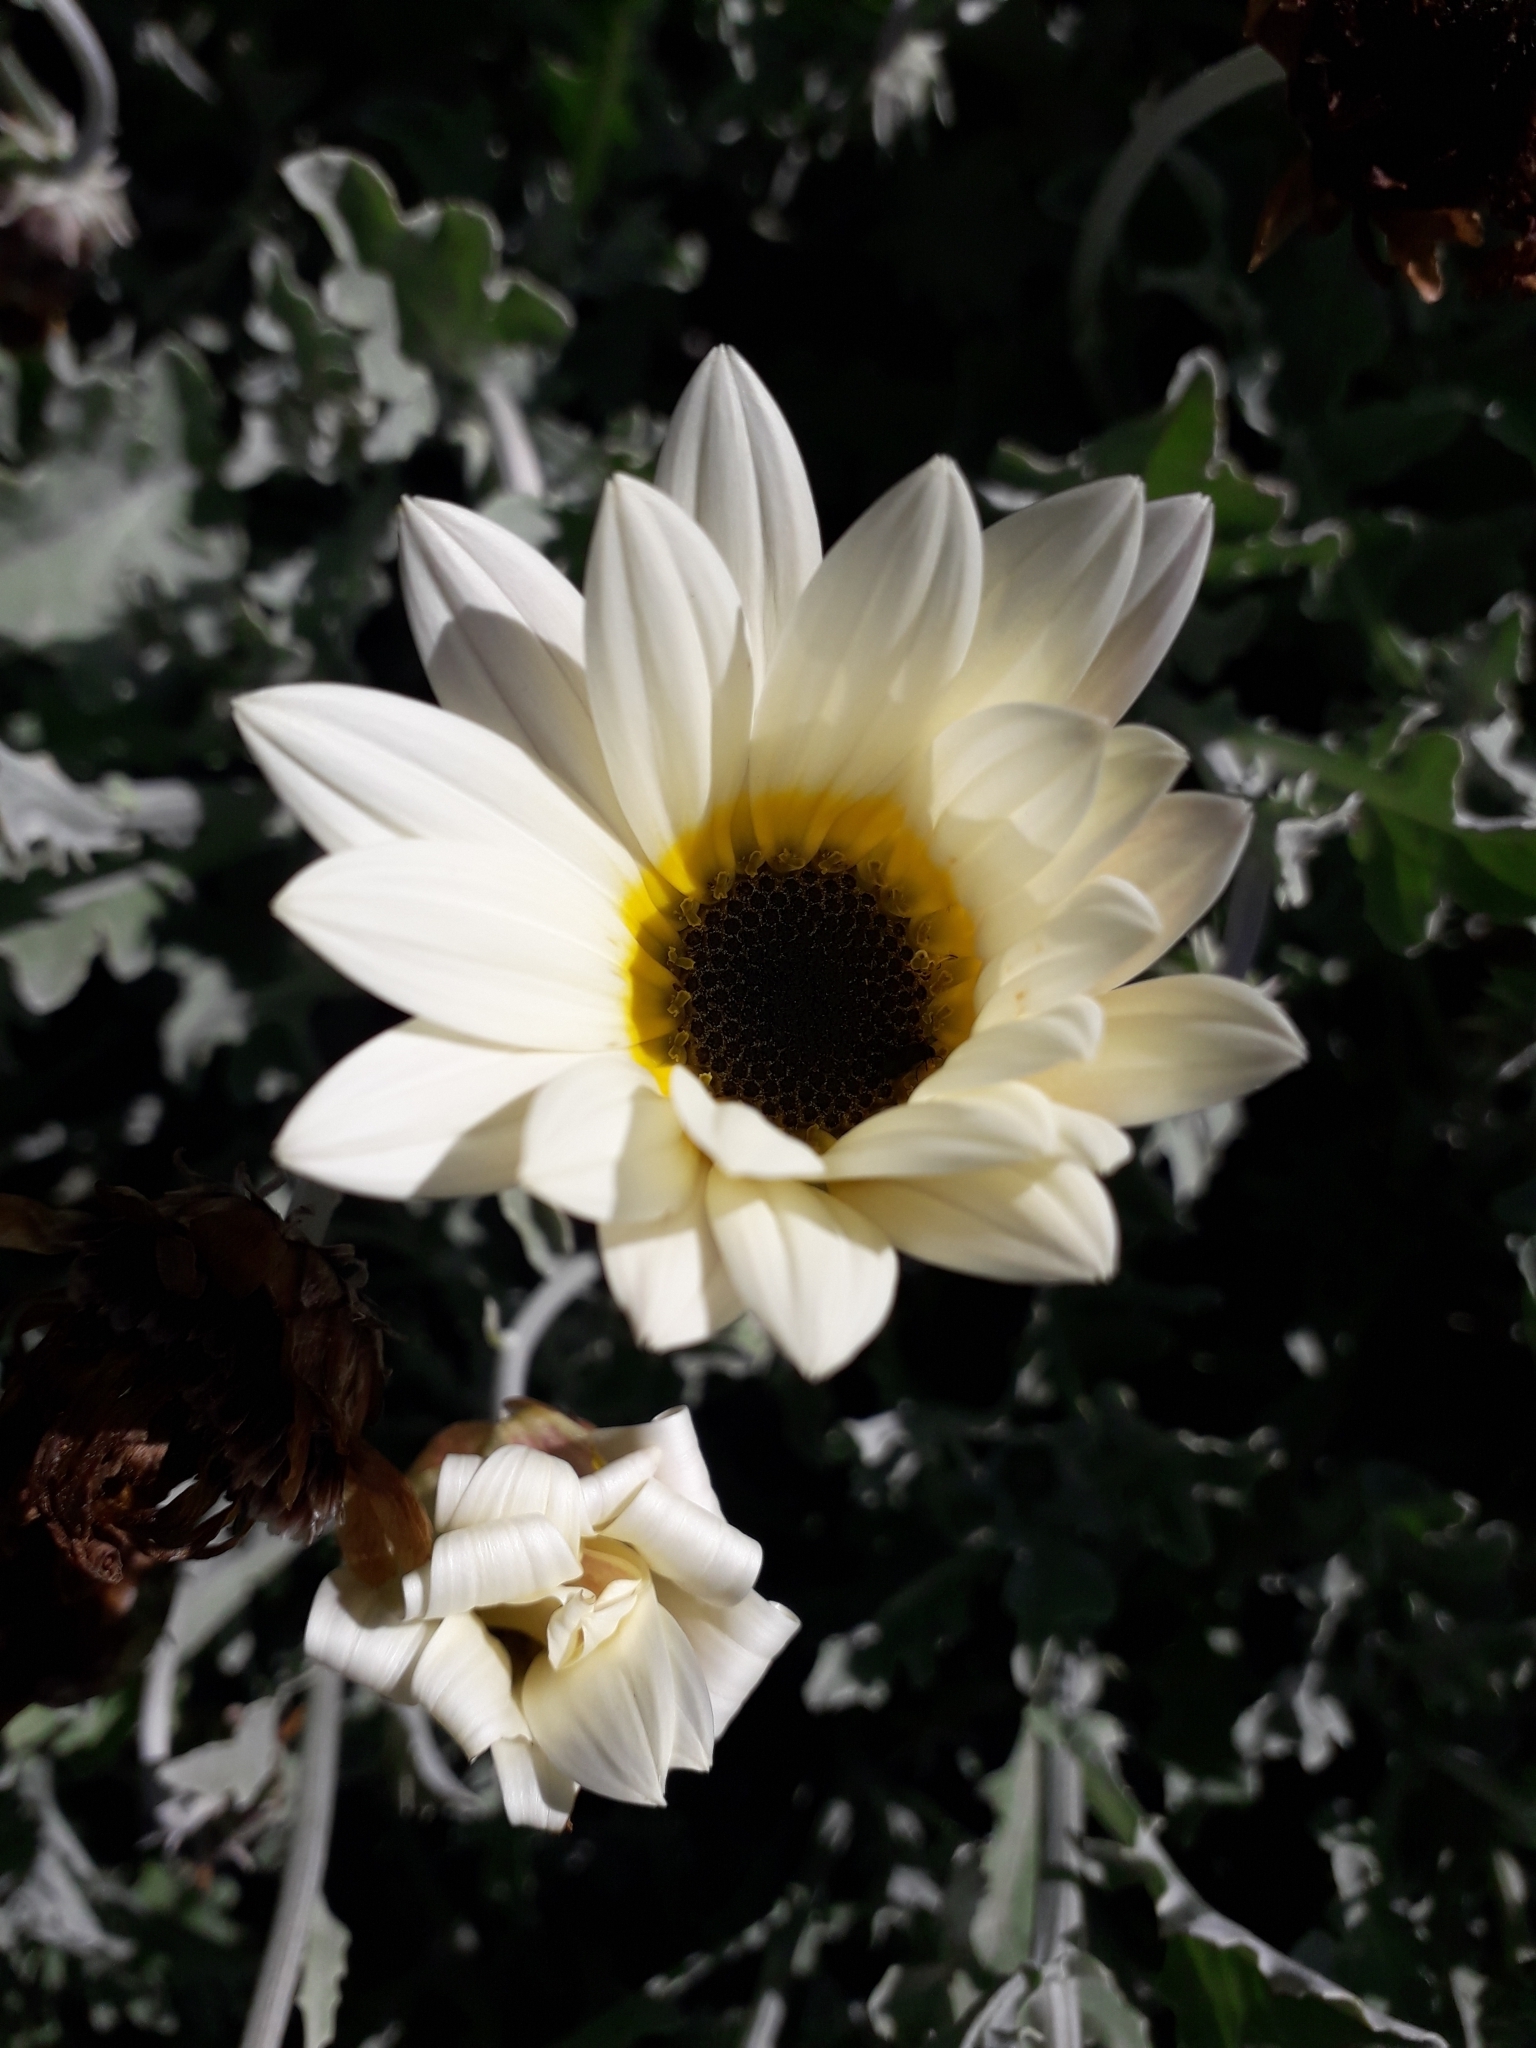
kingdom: Plantae
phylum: Tracheophyta
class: Magnoliopsida
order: Asterales
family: Asteraceae
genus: Arctotis
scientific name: Arctotis stoechadifolia
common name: African daisy
